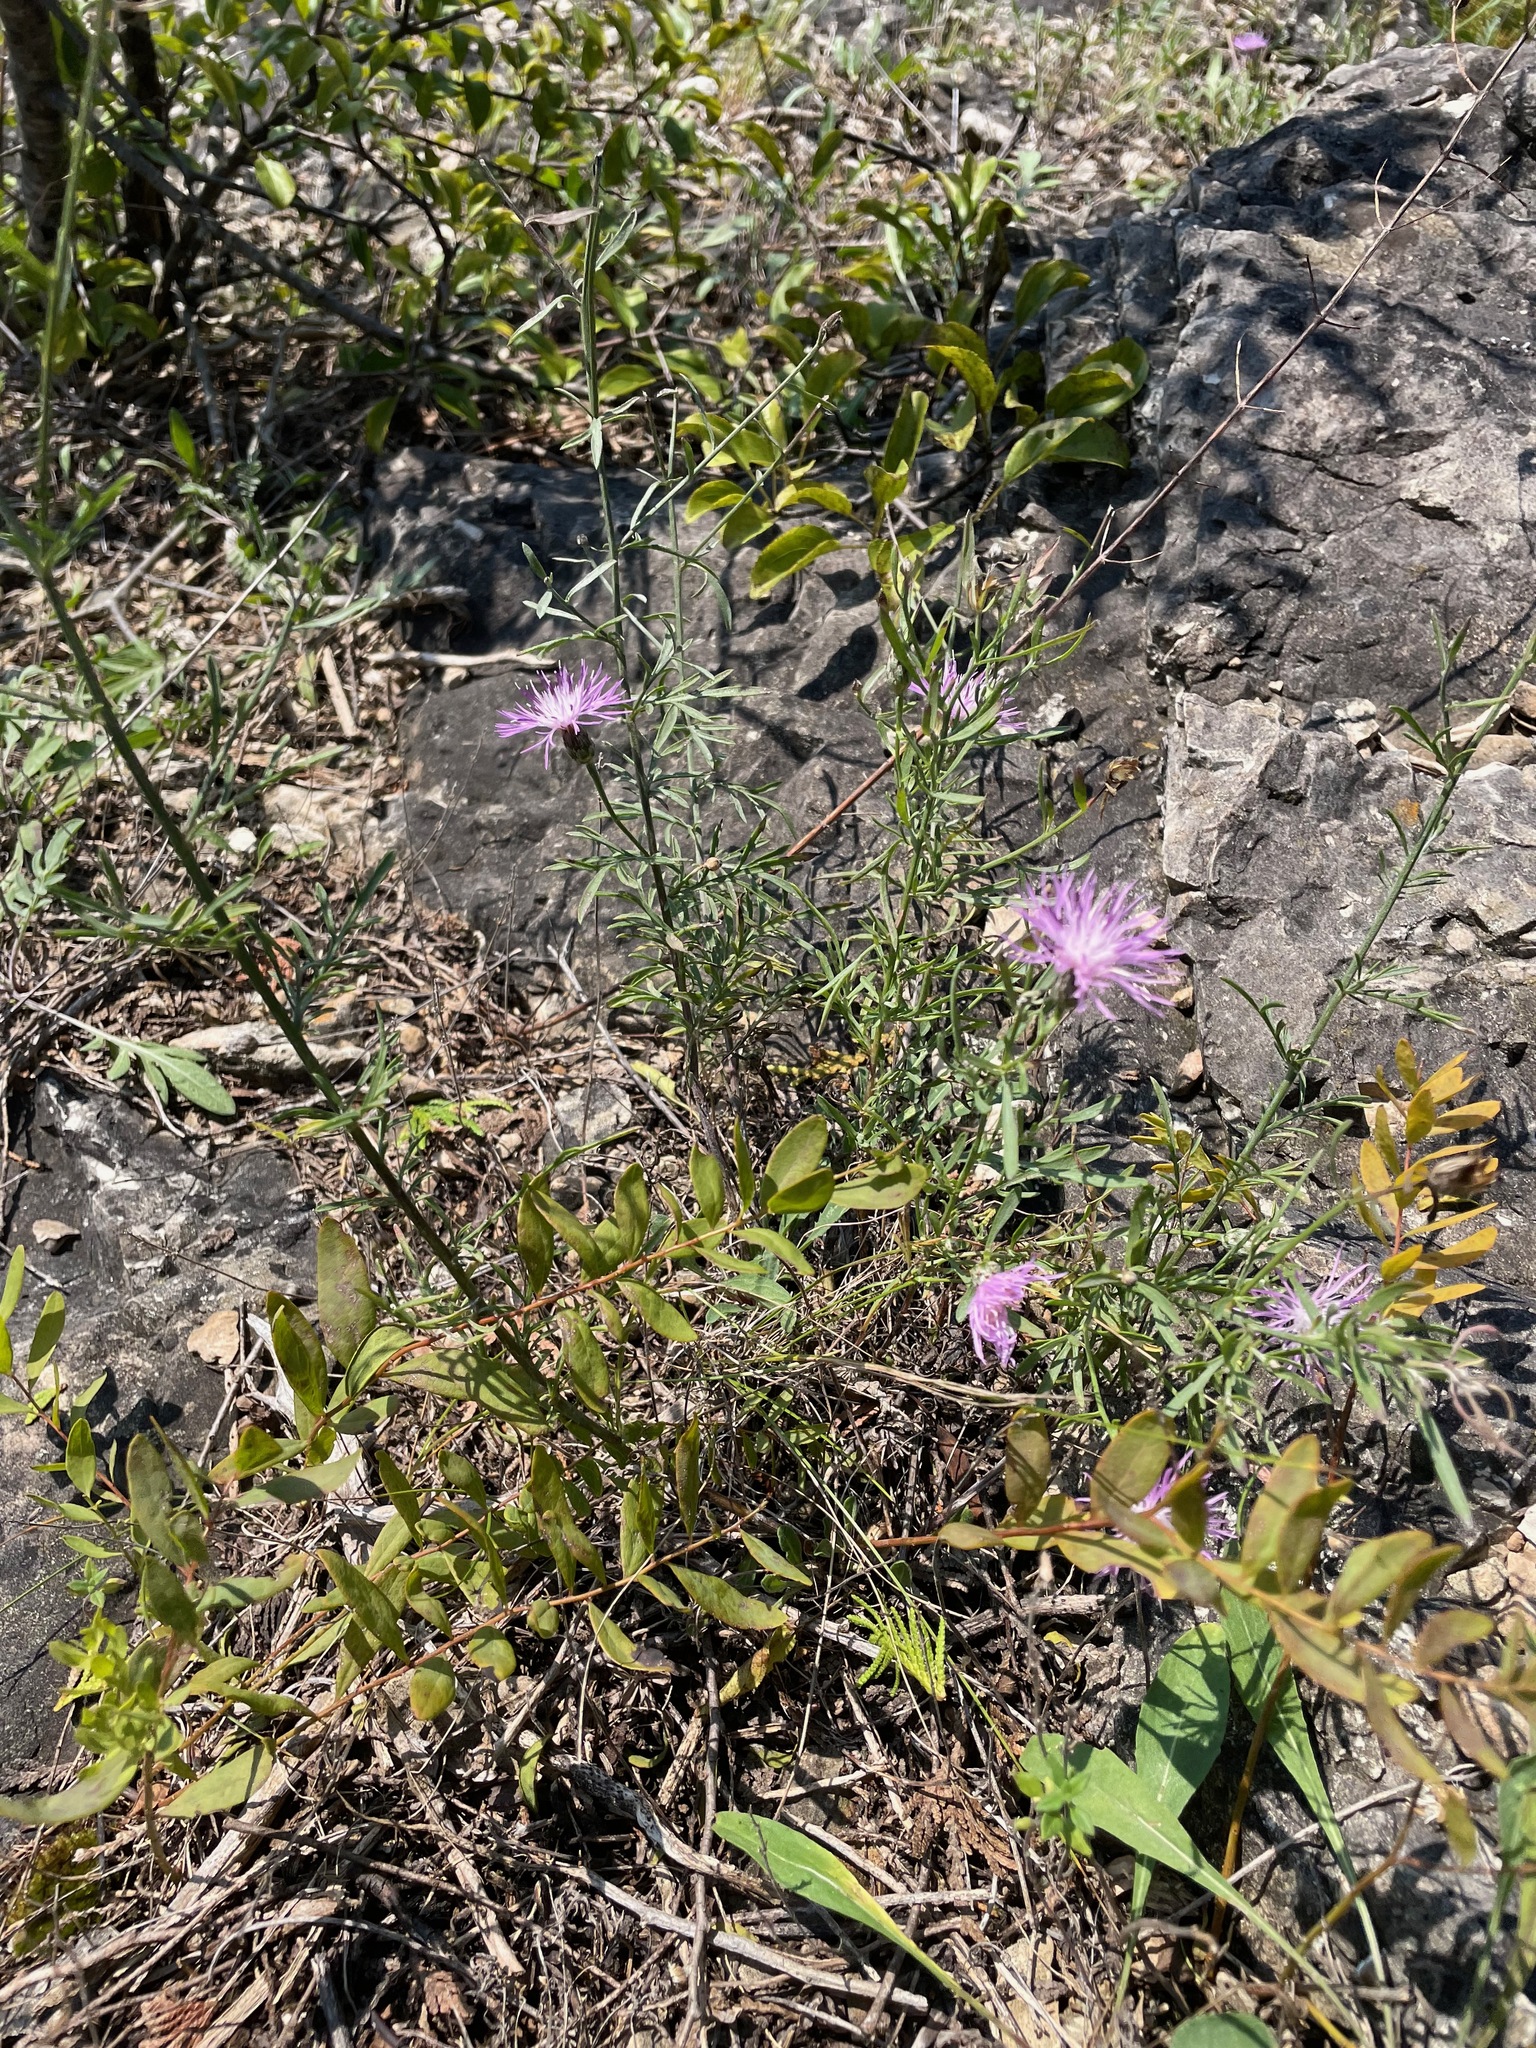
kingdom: Plantae
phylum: Tracheophyta
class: Magnoliopsida
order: Asterales
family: Asteraceae
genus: Centaurea
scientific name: Centaurea stoebe
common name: Spotted knapweed
